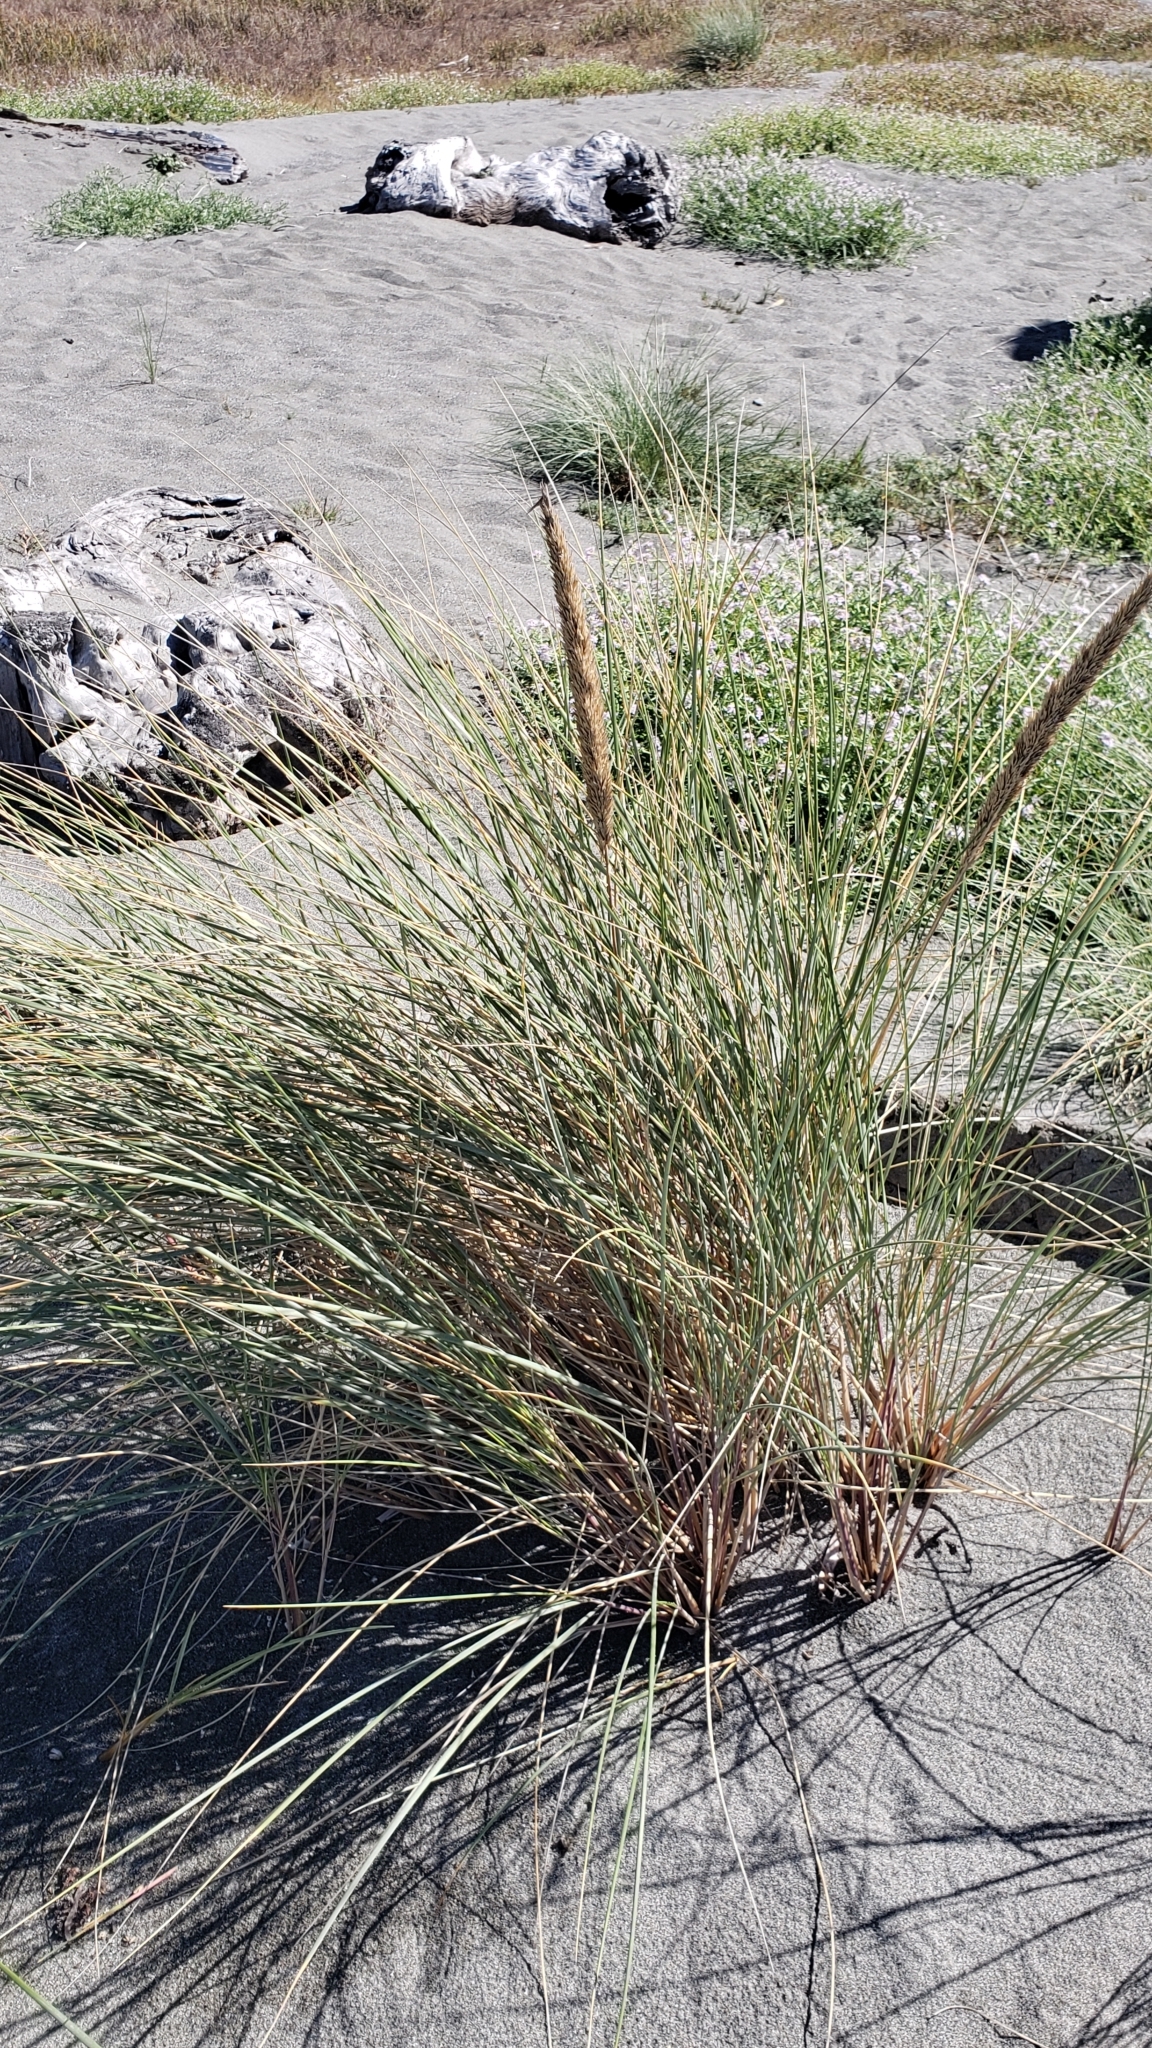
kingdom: Plantae
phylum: Tracheophyta
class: Liliopsida
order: Poales
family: Poaceae
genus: Calamagrostis
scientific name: Calamagrostis arenaria
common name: European beachgrass
